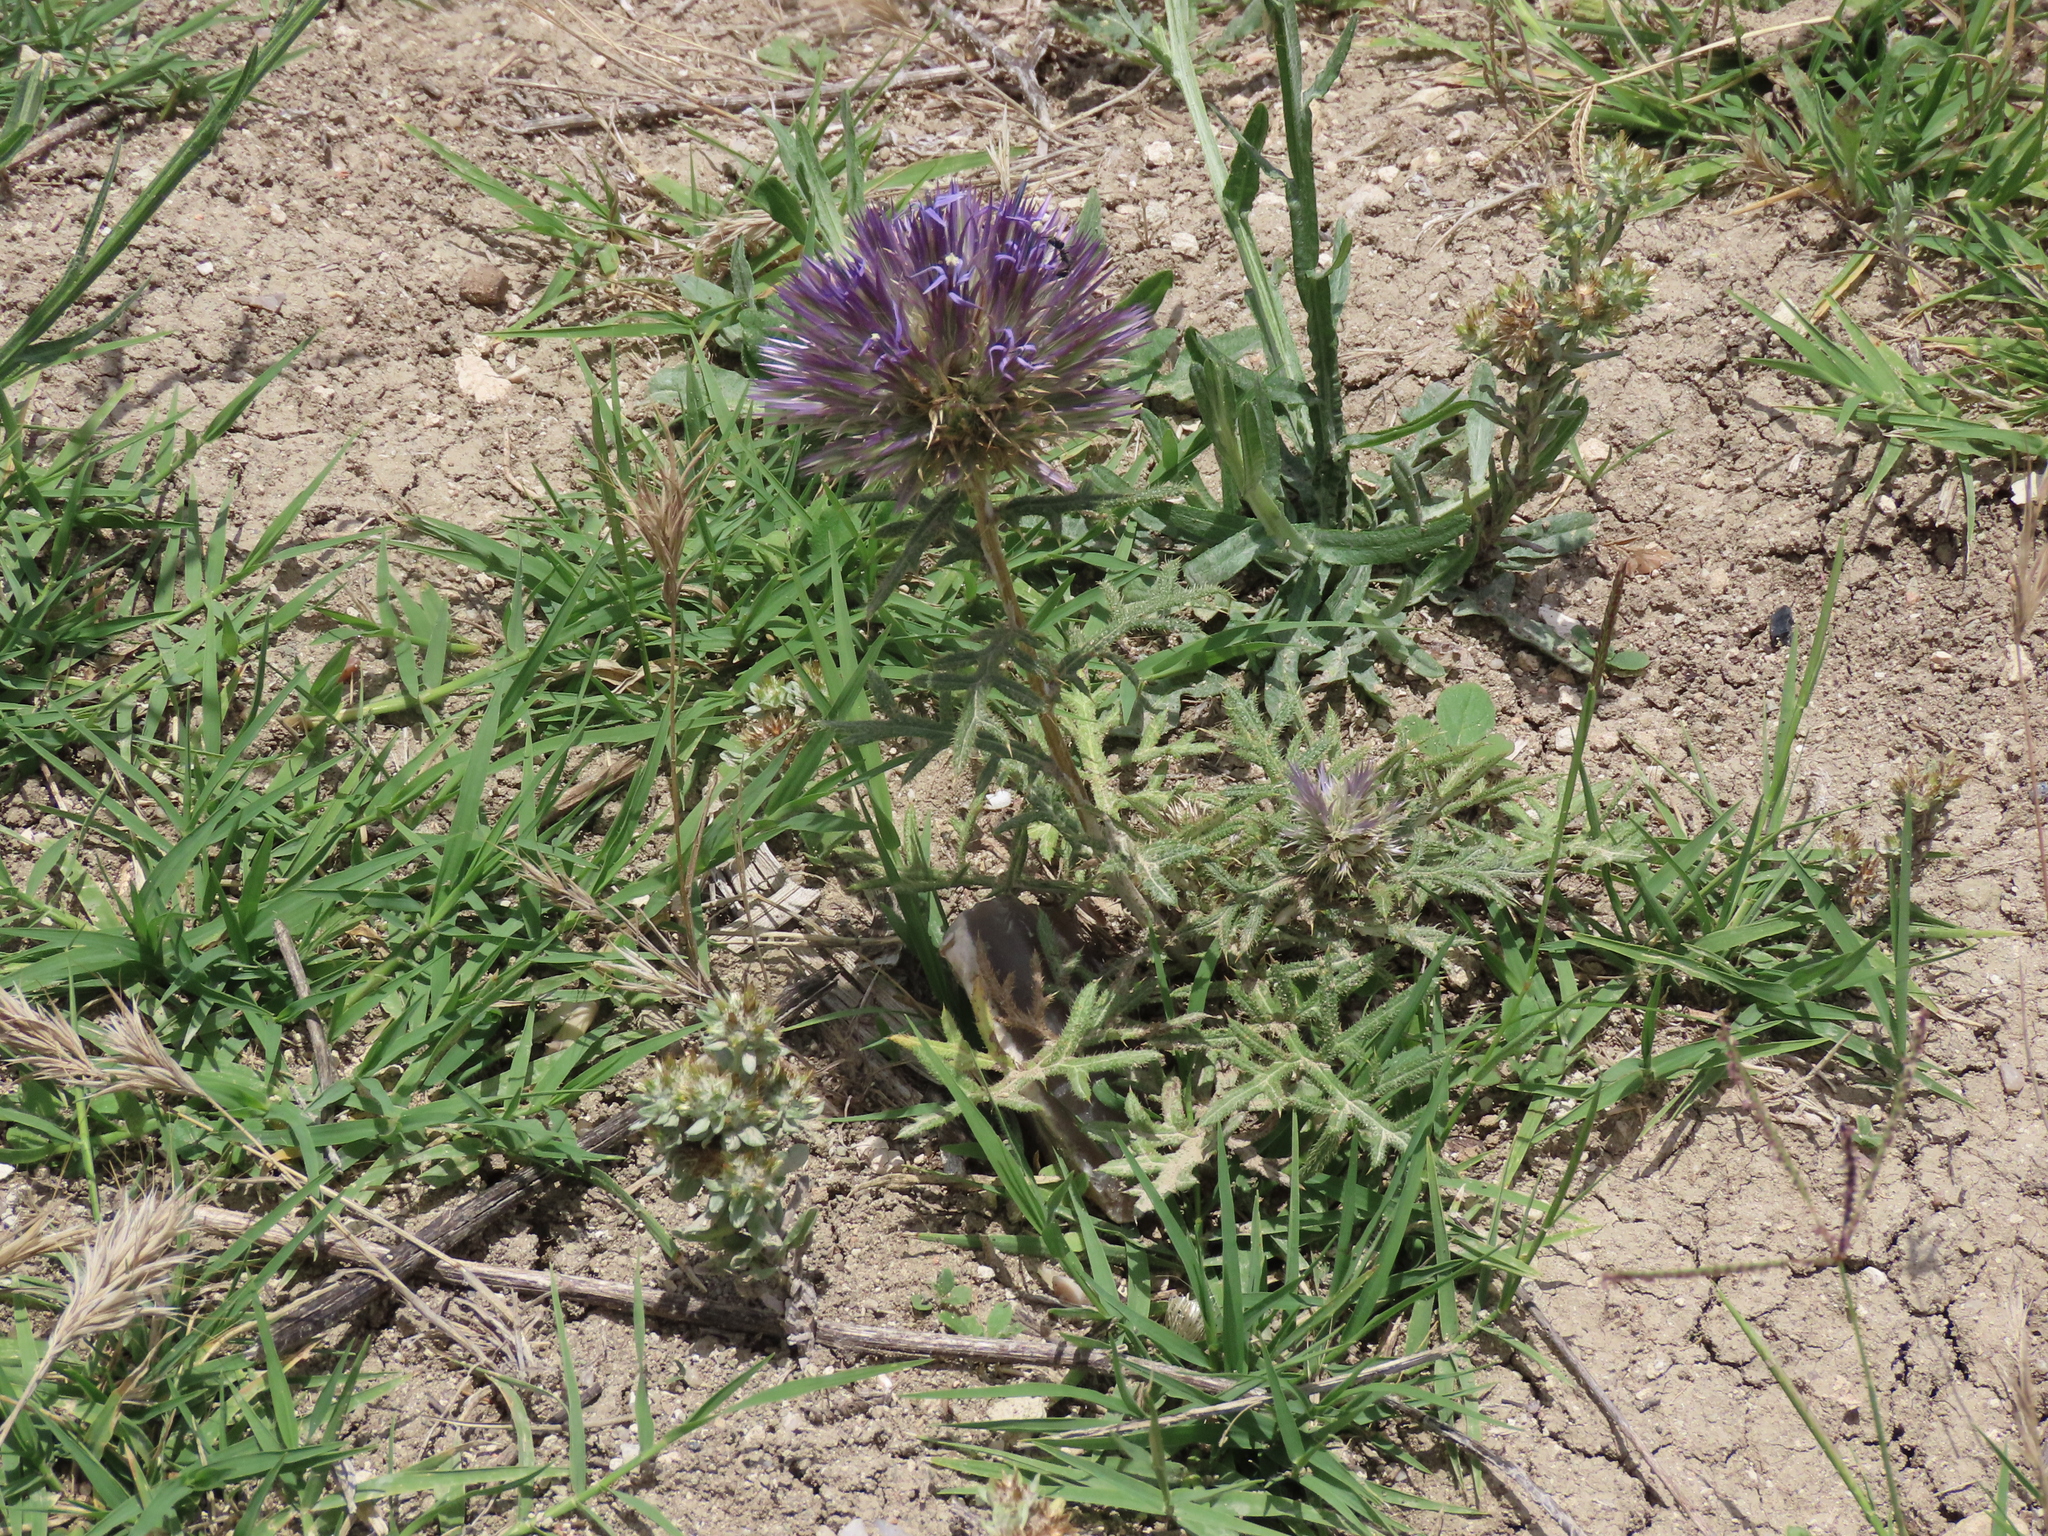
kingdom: Plantae
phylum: Tracheophyta
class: Magnoliopsida
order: Asterales
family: Asteraceae
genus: Echinops
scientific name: Echinops strigosus
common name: Rough-leaf globe thistle
